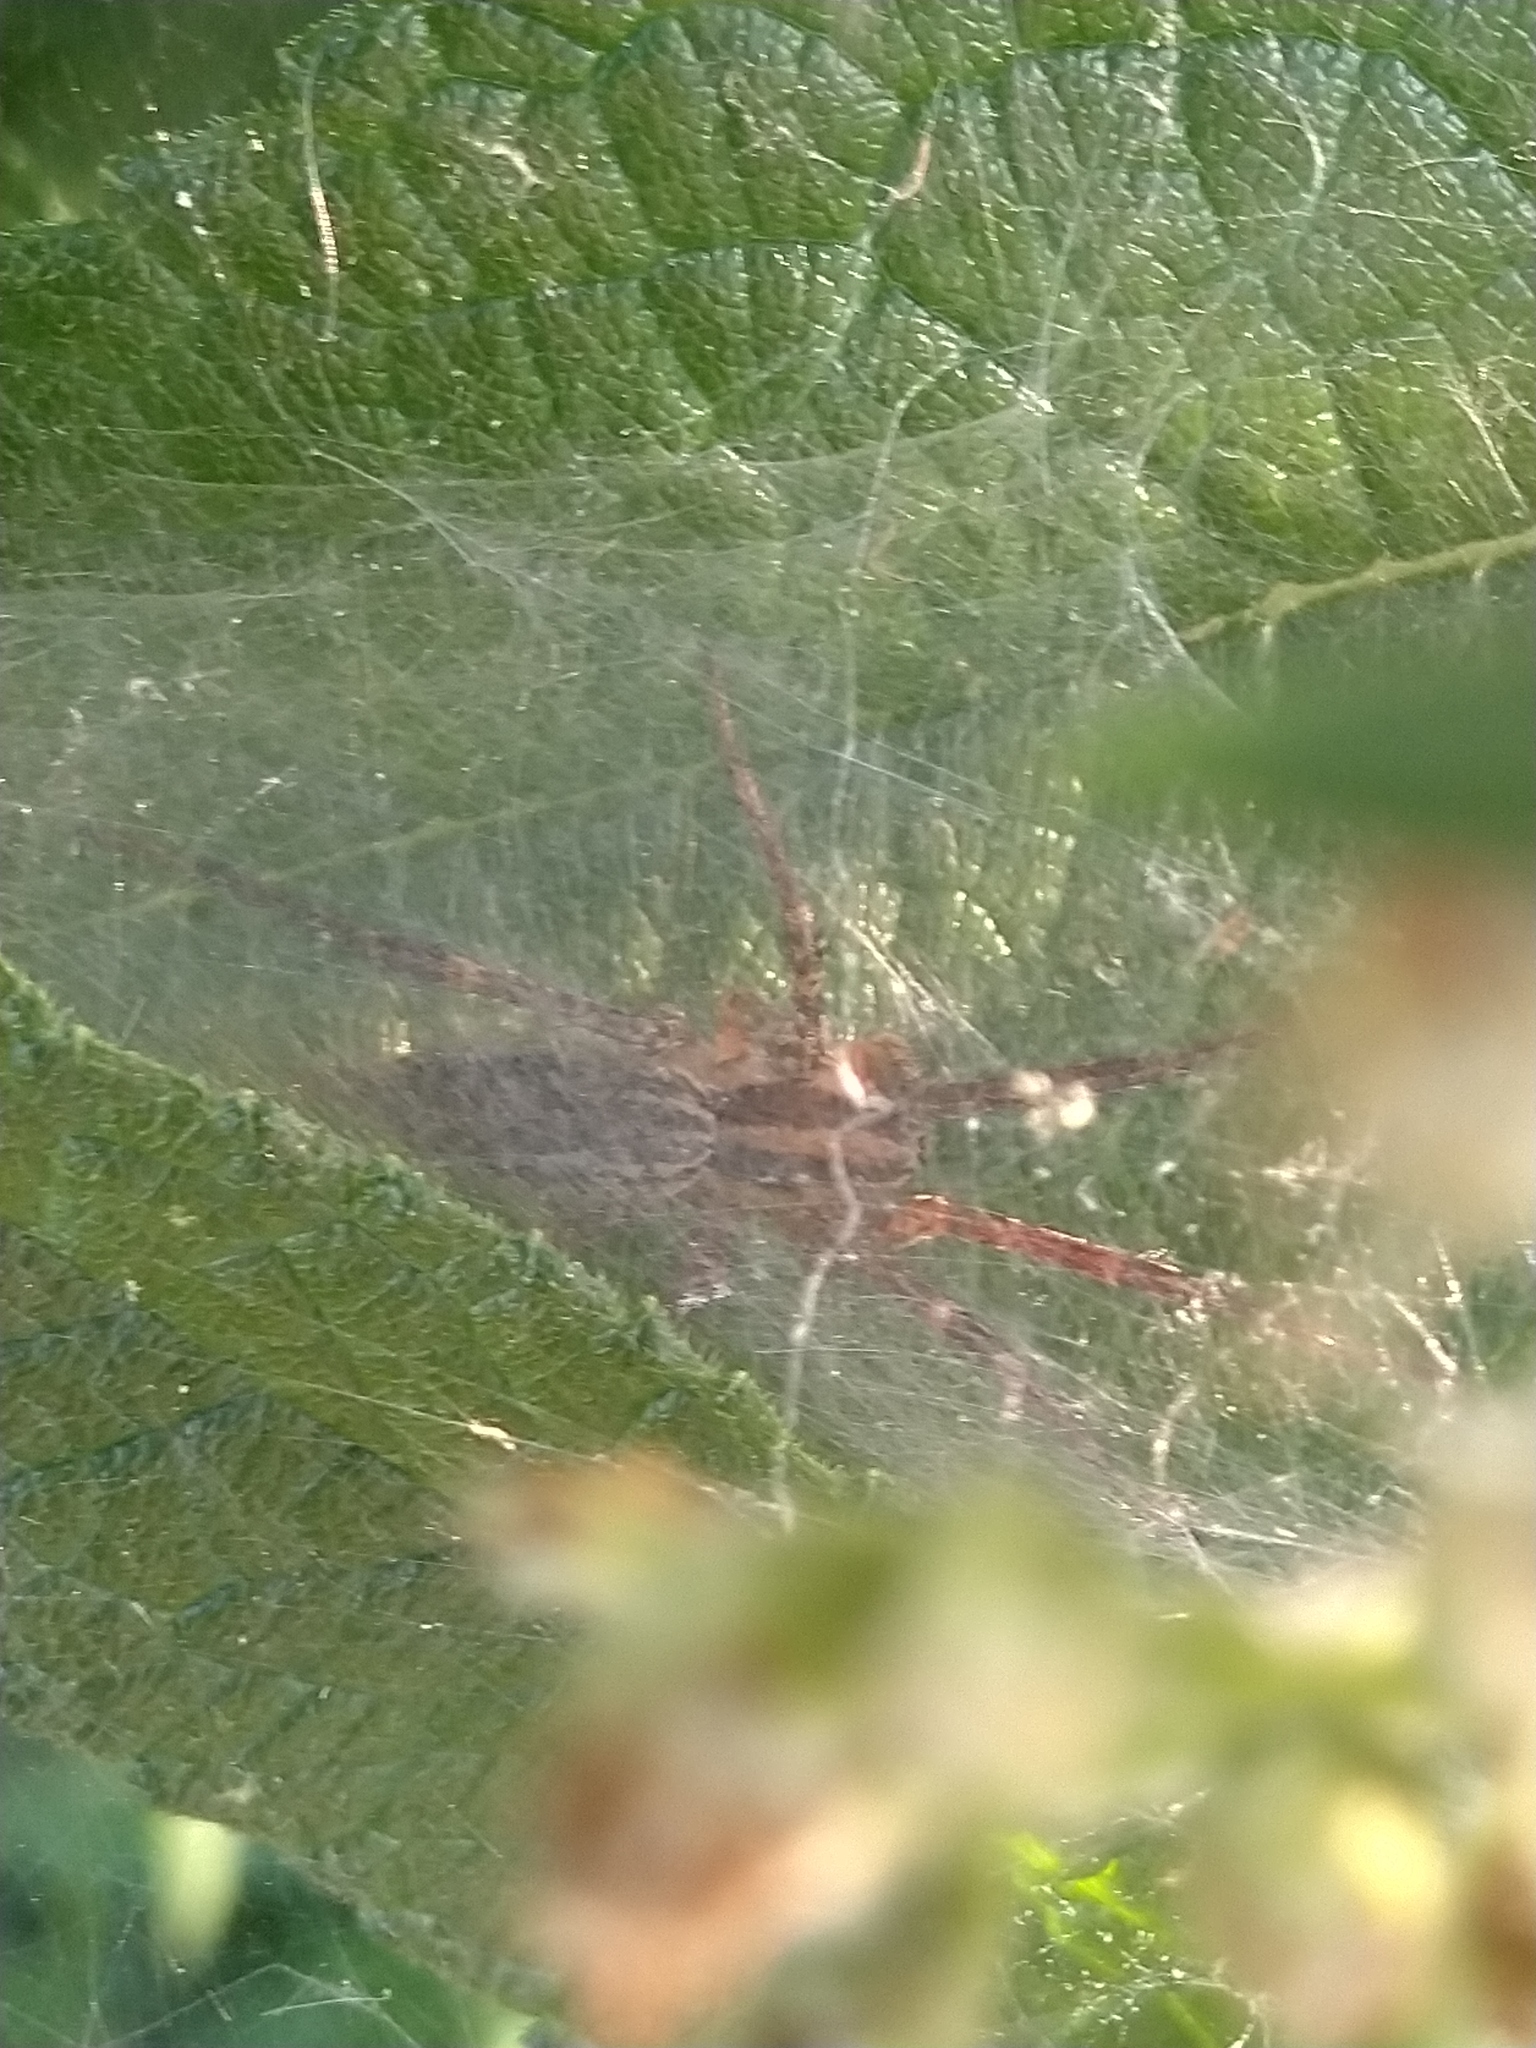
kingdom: Animalia
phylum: Arthropoda
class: Arachnida
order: Araneae
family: Agelenidae
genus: Agelenopsis
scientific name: Agelenopsis
